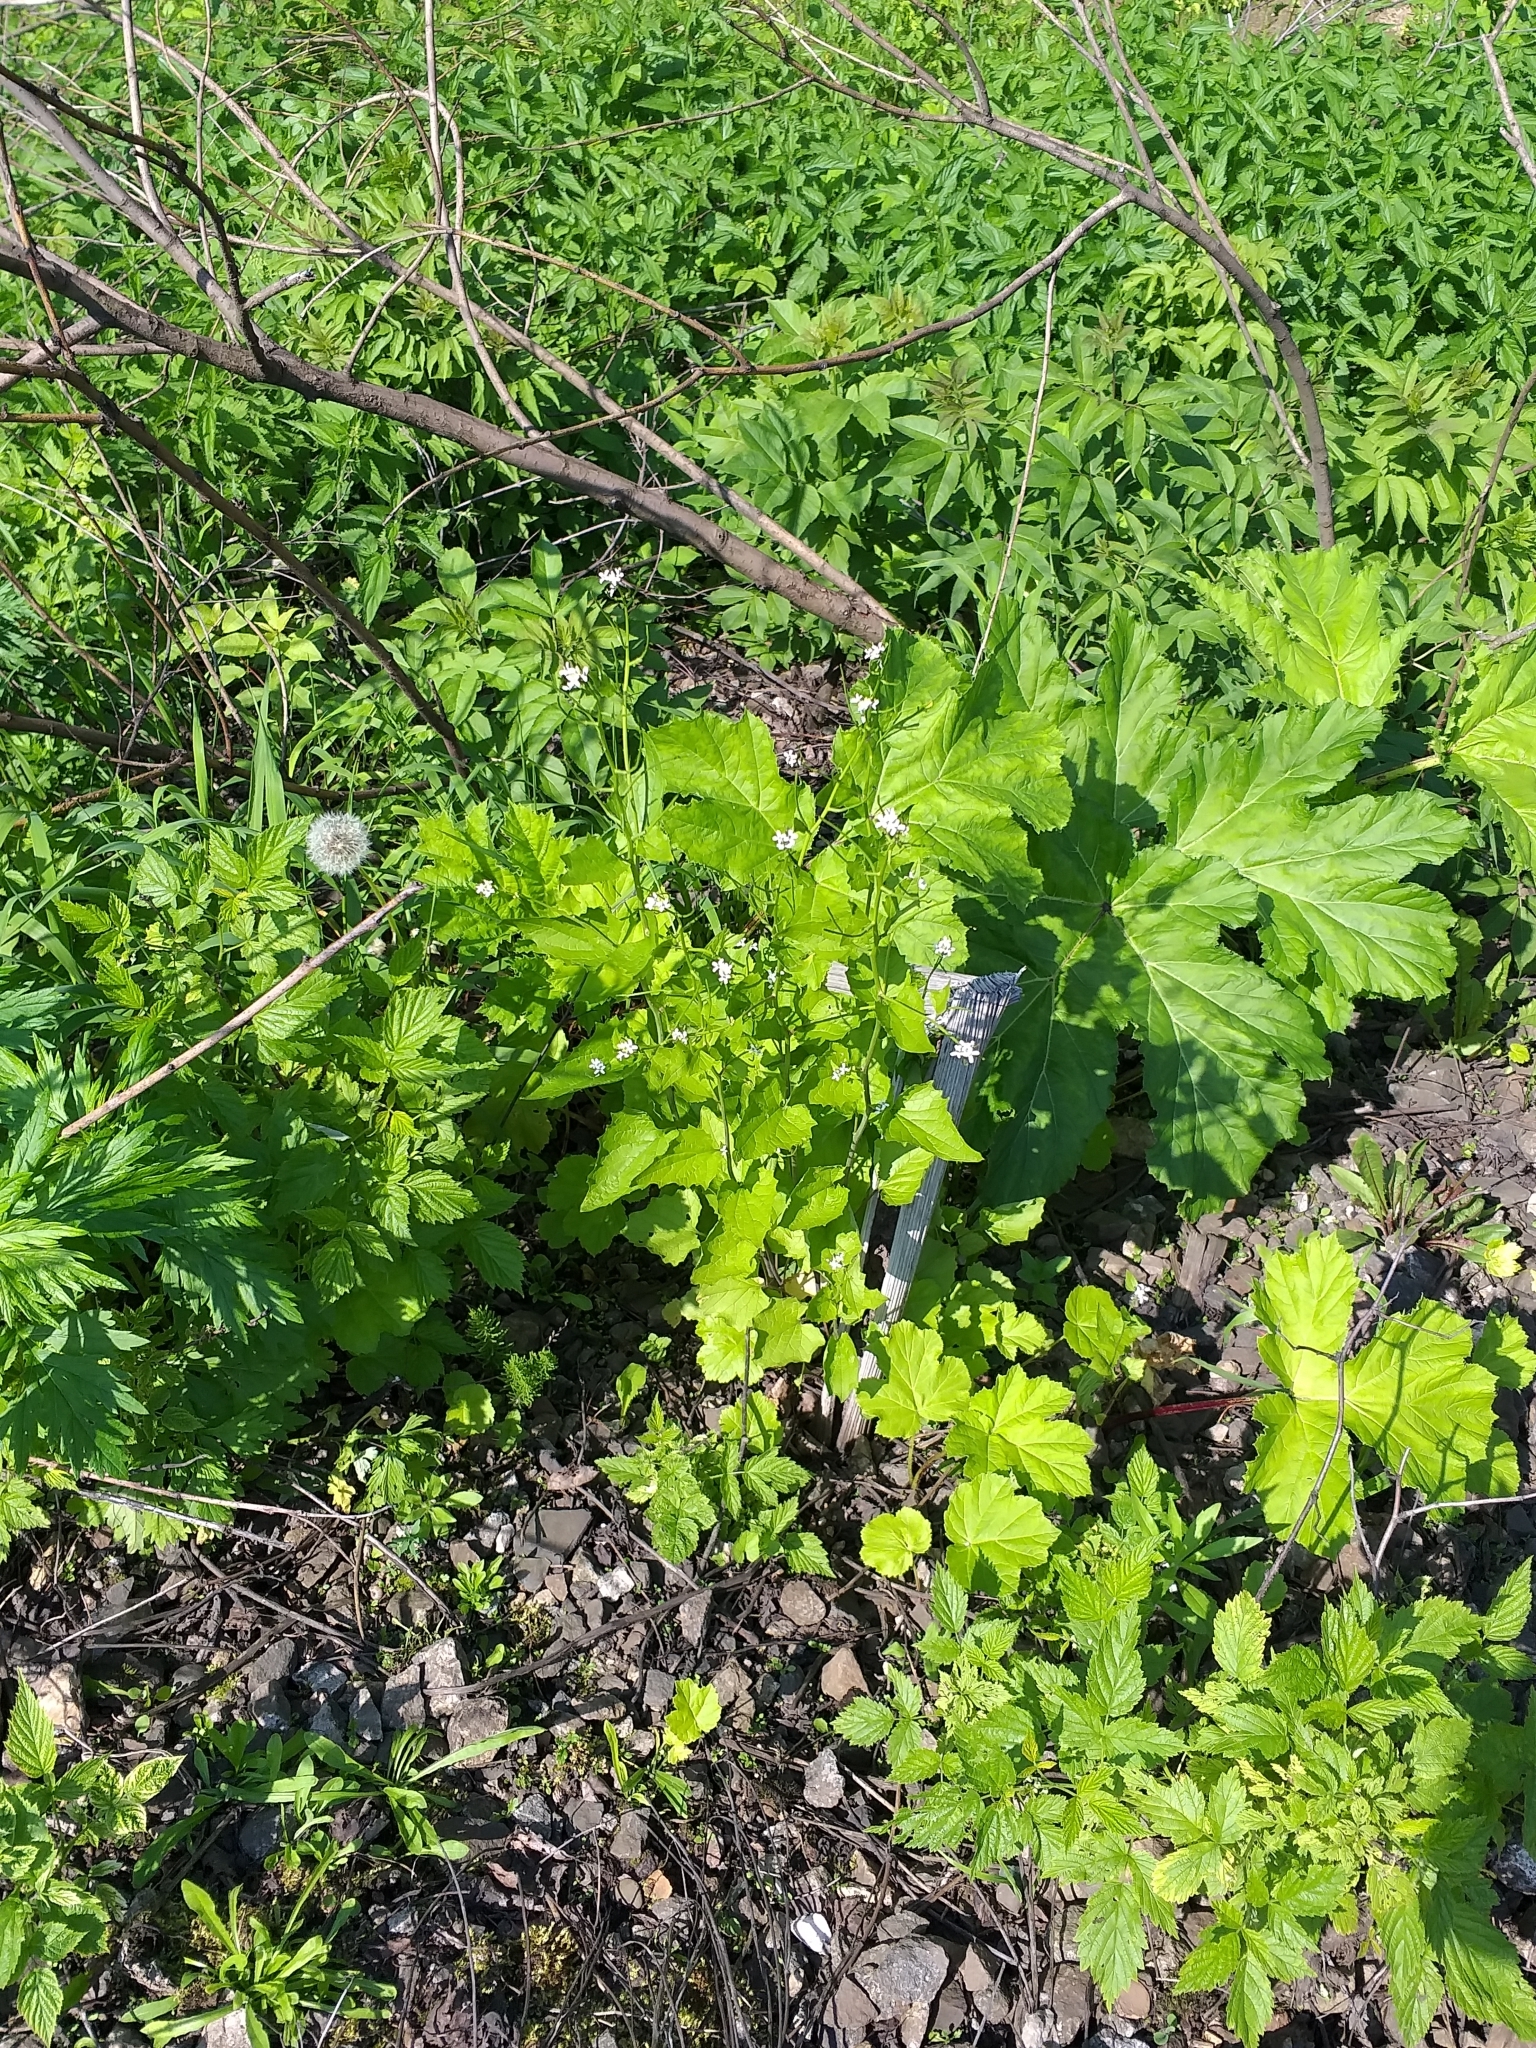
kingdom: Plantae
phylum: Tracheophyta
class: Magnoliopsida
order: Brassicales
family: Brassicaceae
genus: Alliaria
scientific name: Alliaria petiolata
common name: Garlic mustard
